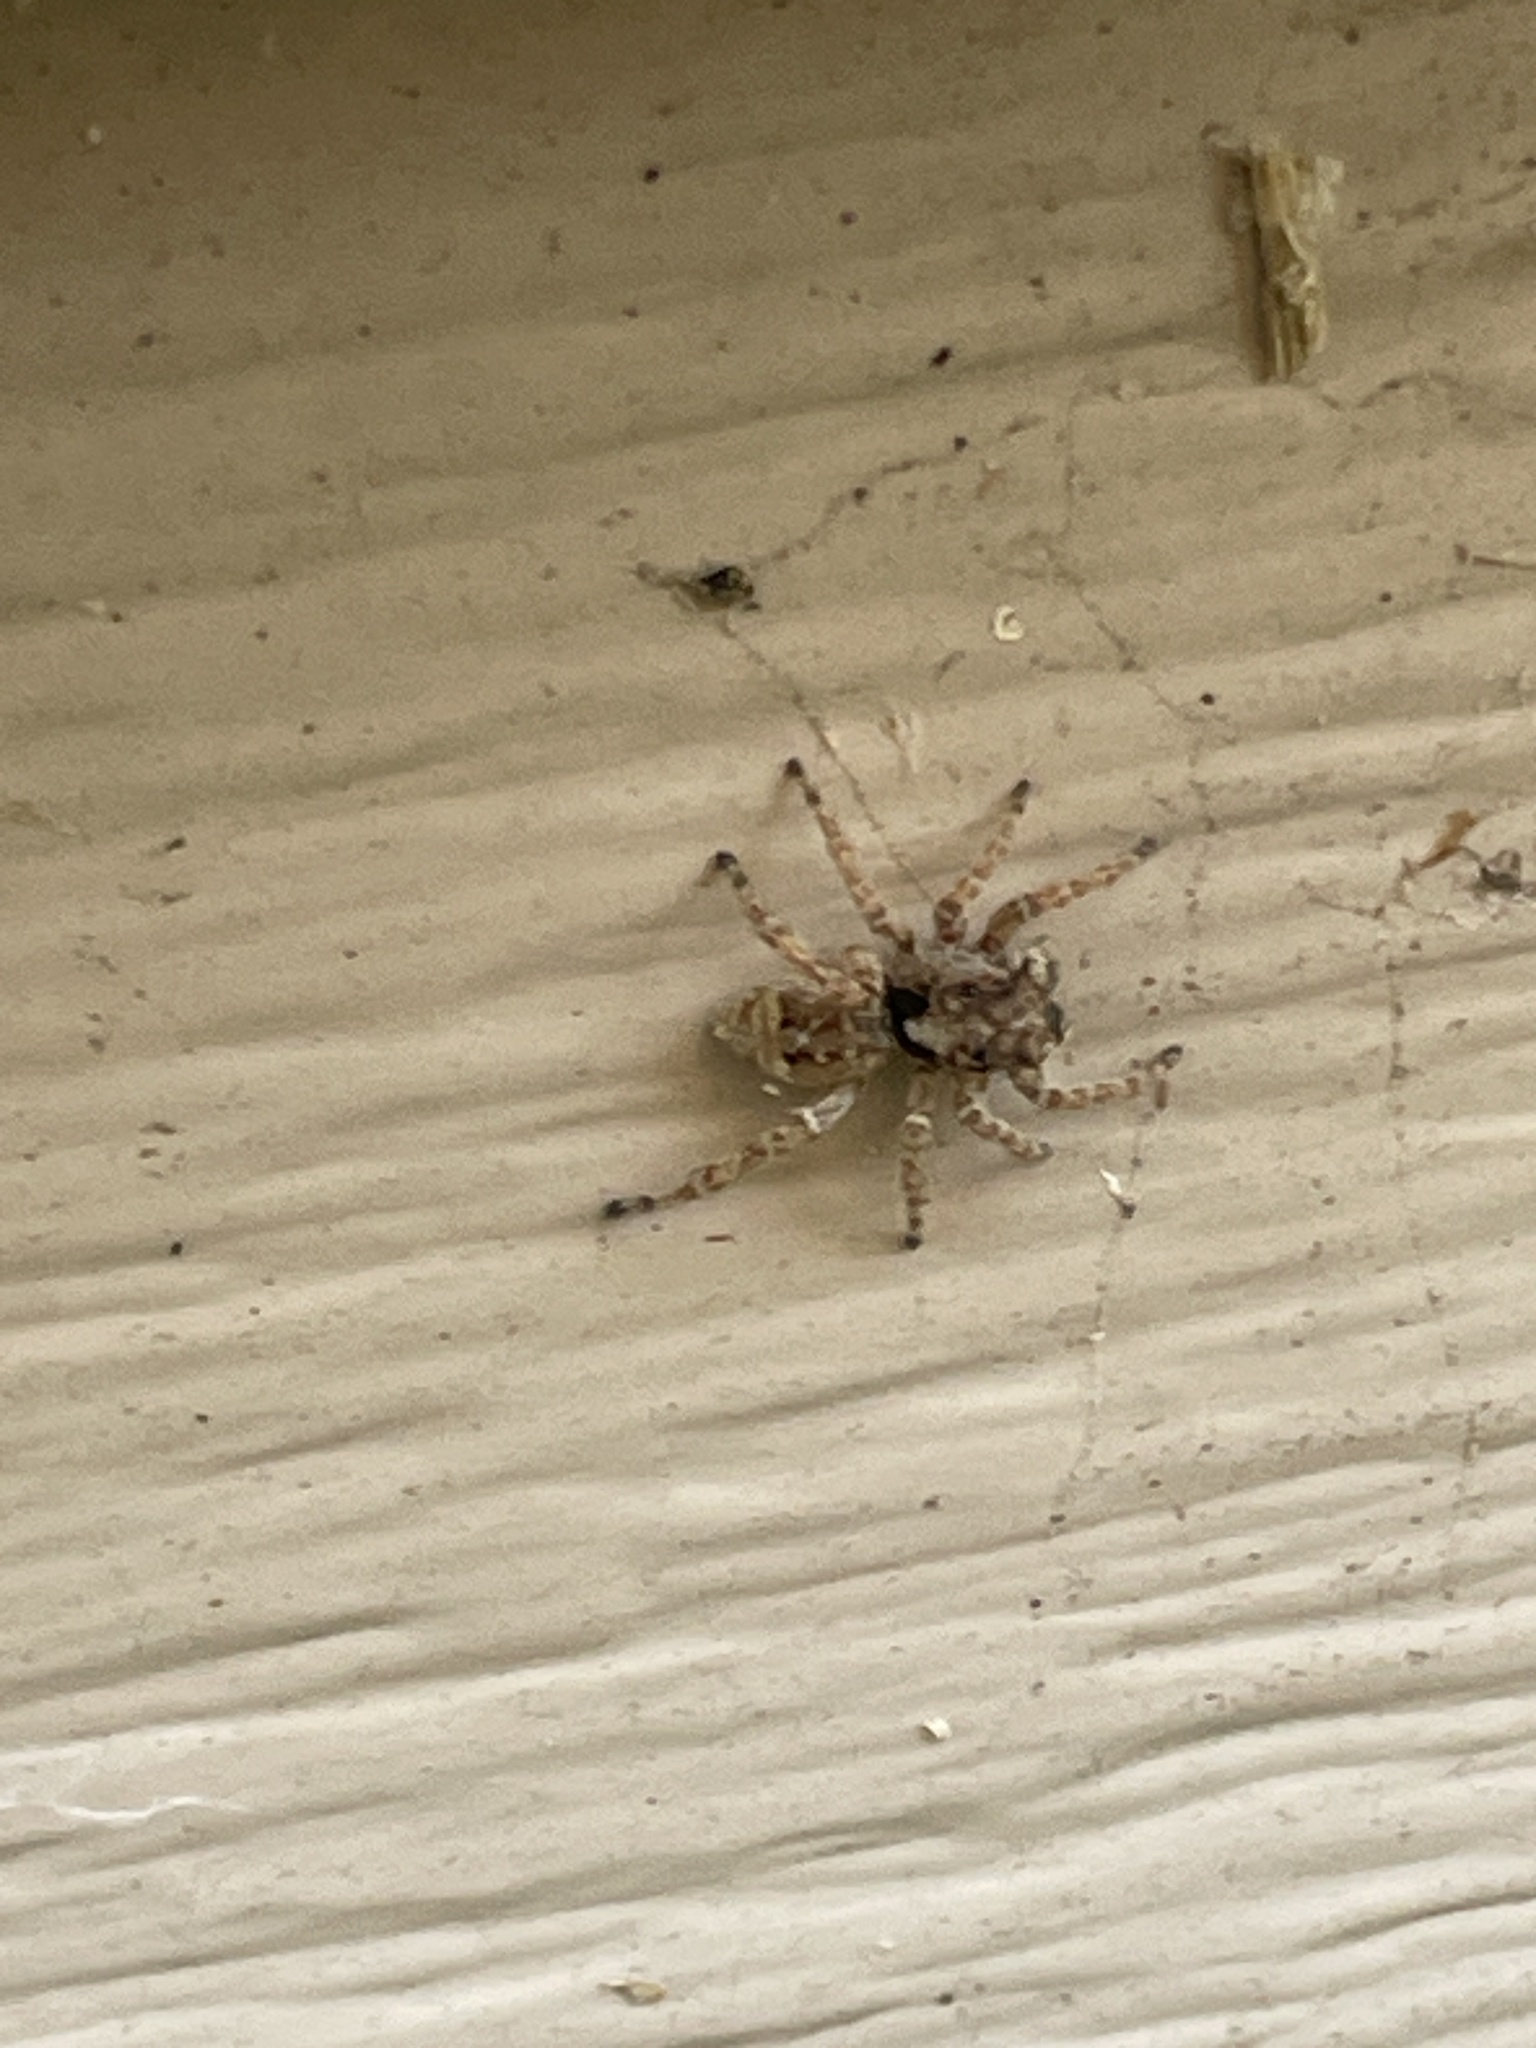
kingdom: Animalia
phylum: Arthropoda
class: Arachnida
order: Araneae
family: Salticidae
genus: Attulus
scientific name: Attulus fasciger
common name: Asiatic wall jumping spider
